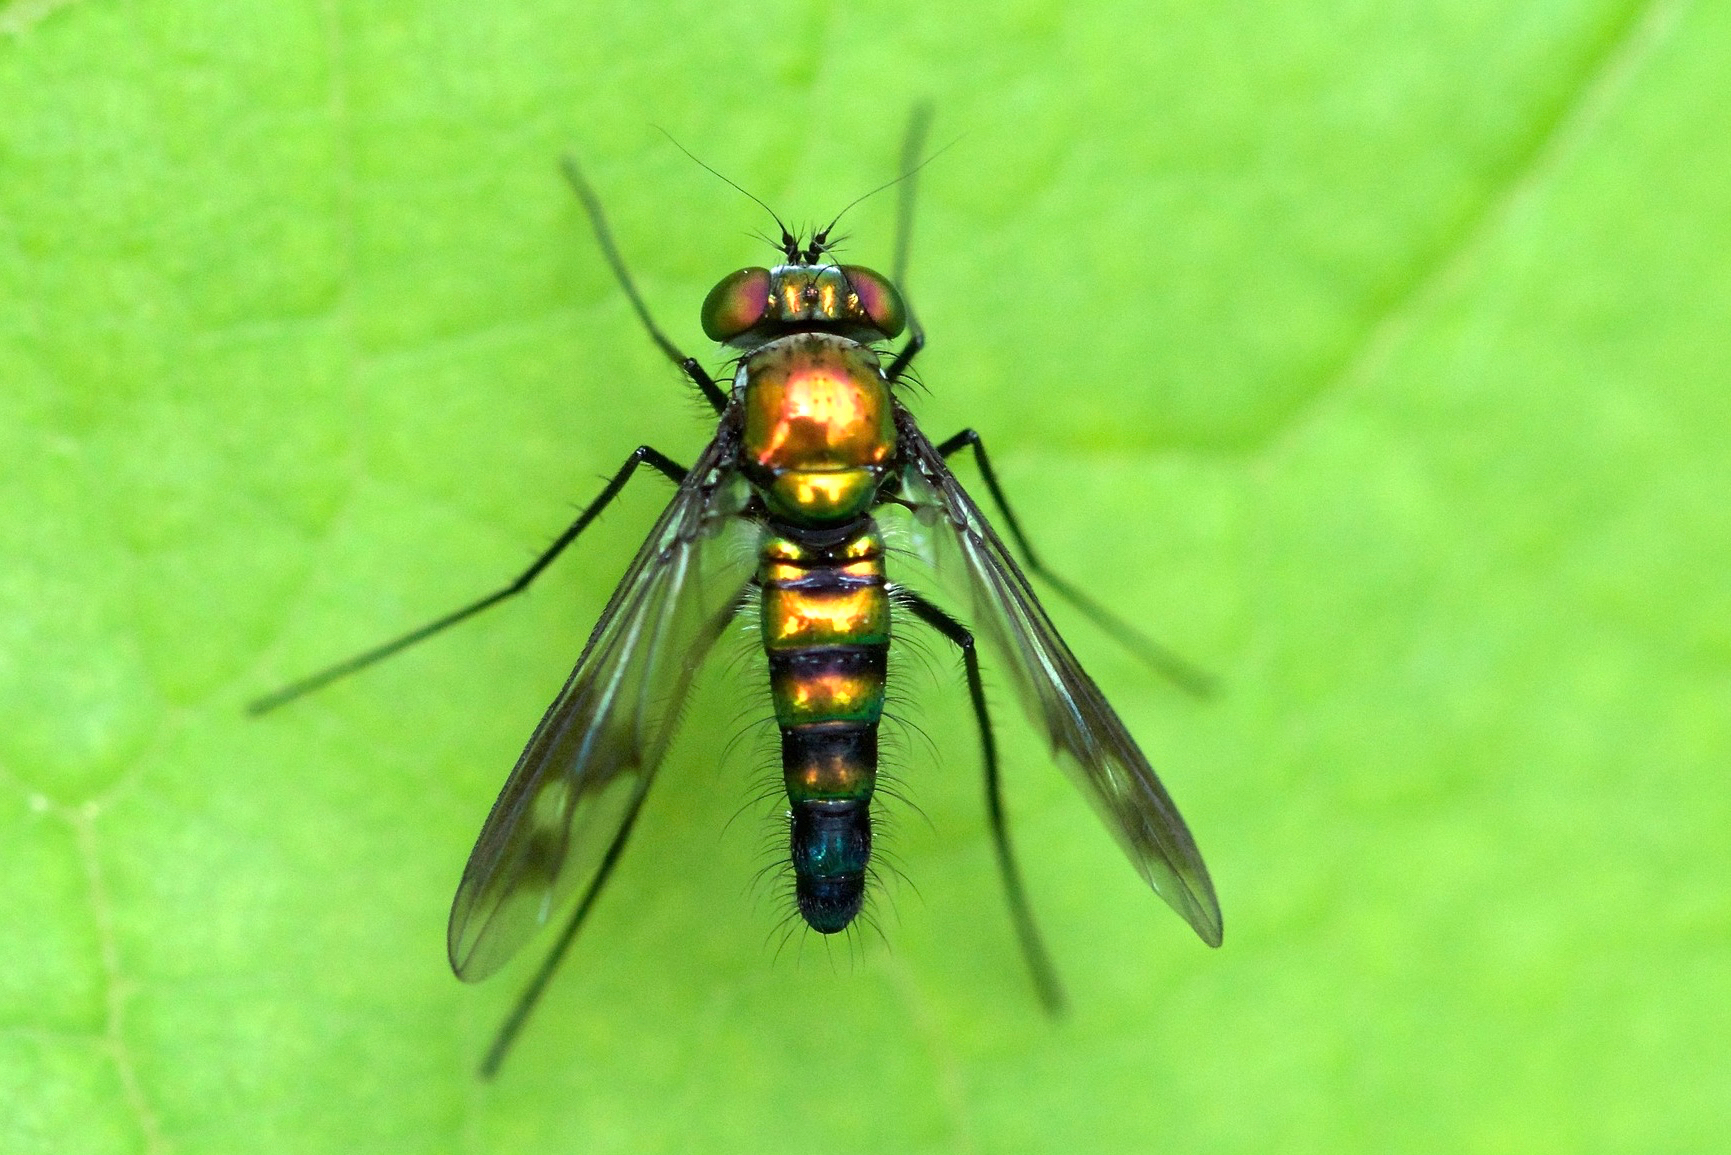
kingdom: Animalia
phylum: Arthropoda
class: Insecta
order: Diptera
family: Dolichopodidae
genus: Condylostylus
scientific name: Condylostylus patibulatus
